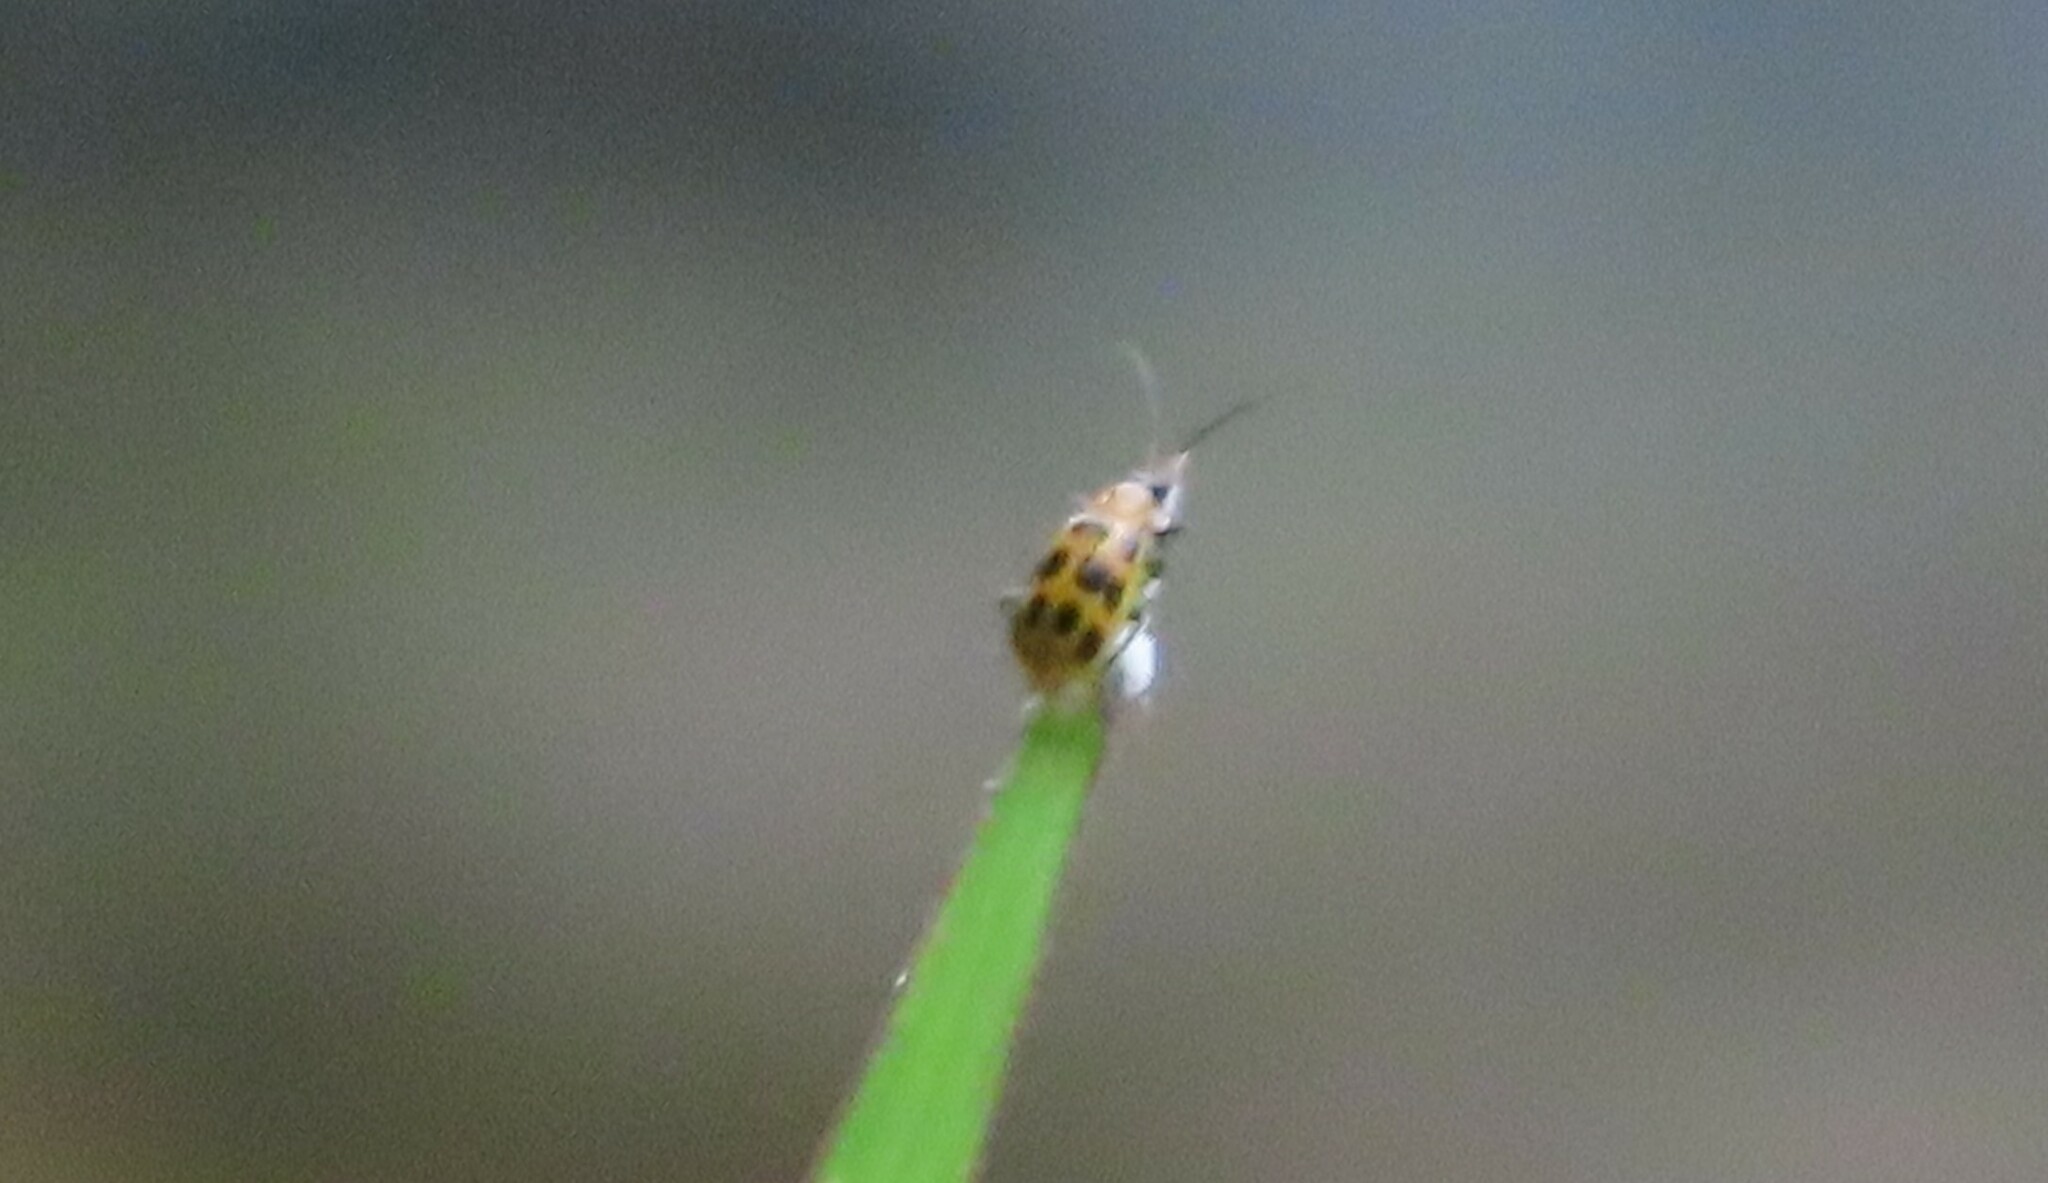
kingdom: Animalia
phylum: Arthropoda
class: Insecta
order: Coleoptera
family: Chrysomelidae
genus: Diabrotica
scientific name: Diabrotica undecimpunctata
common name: Spotted cucumber beetle
